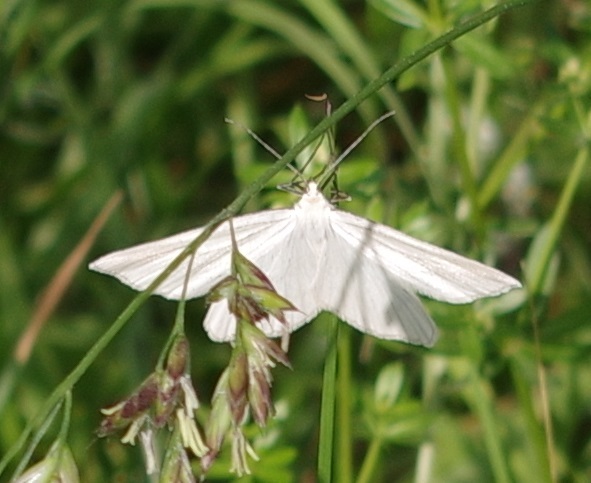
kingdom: Animalia
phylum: Arthropoda
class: Insecta
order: Lepidoptera
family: Geometridae
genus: Siona
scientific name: Siona lineata
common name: Black-veined moth
